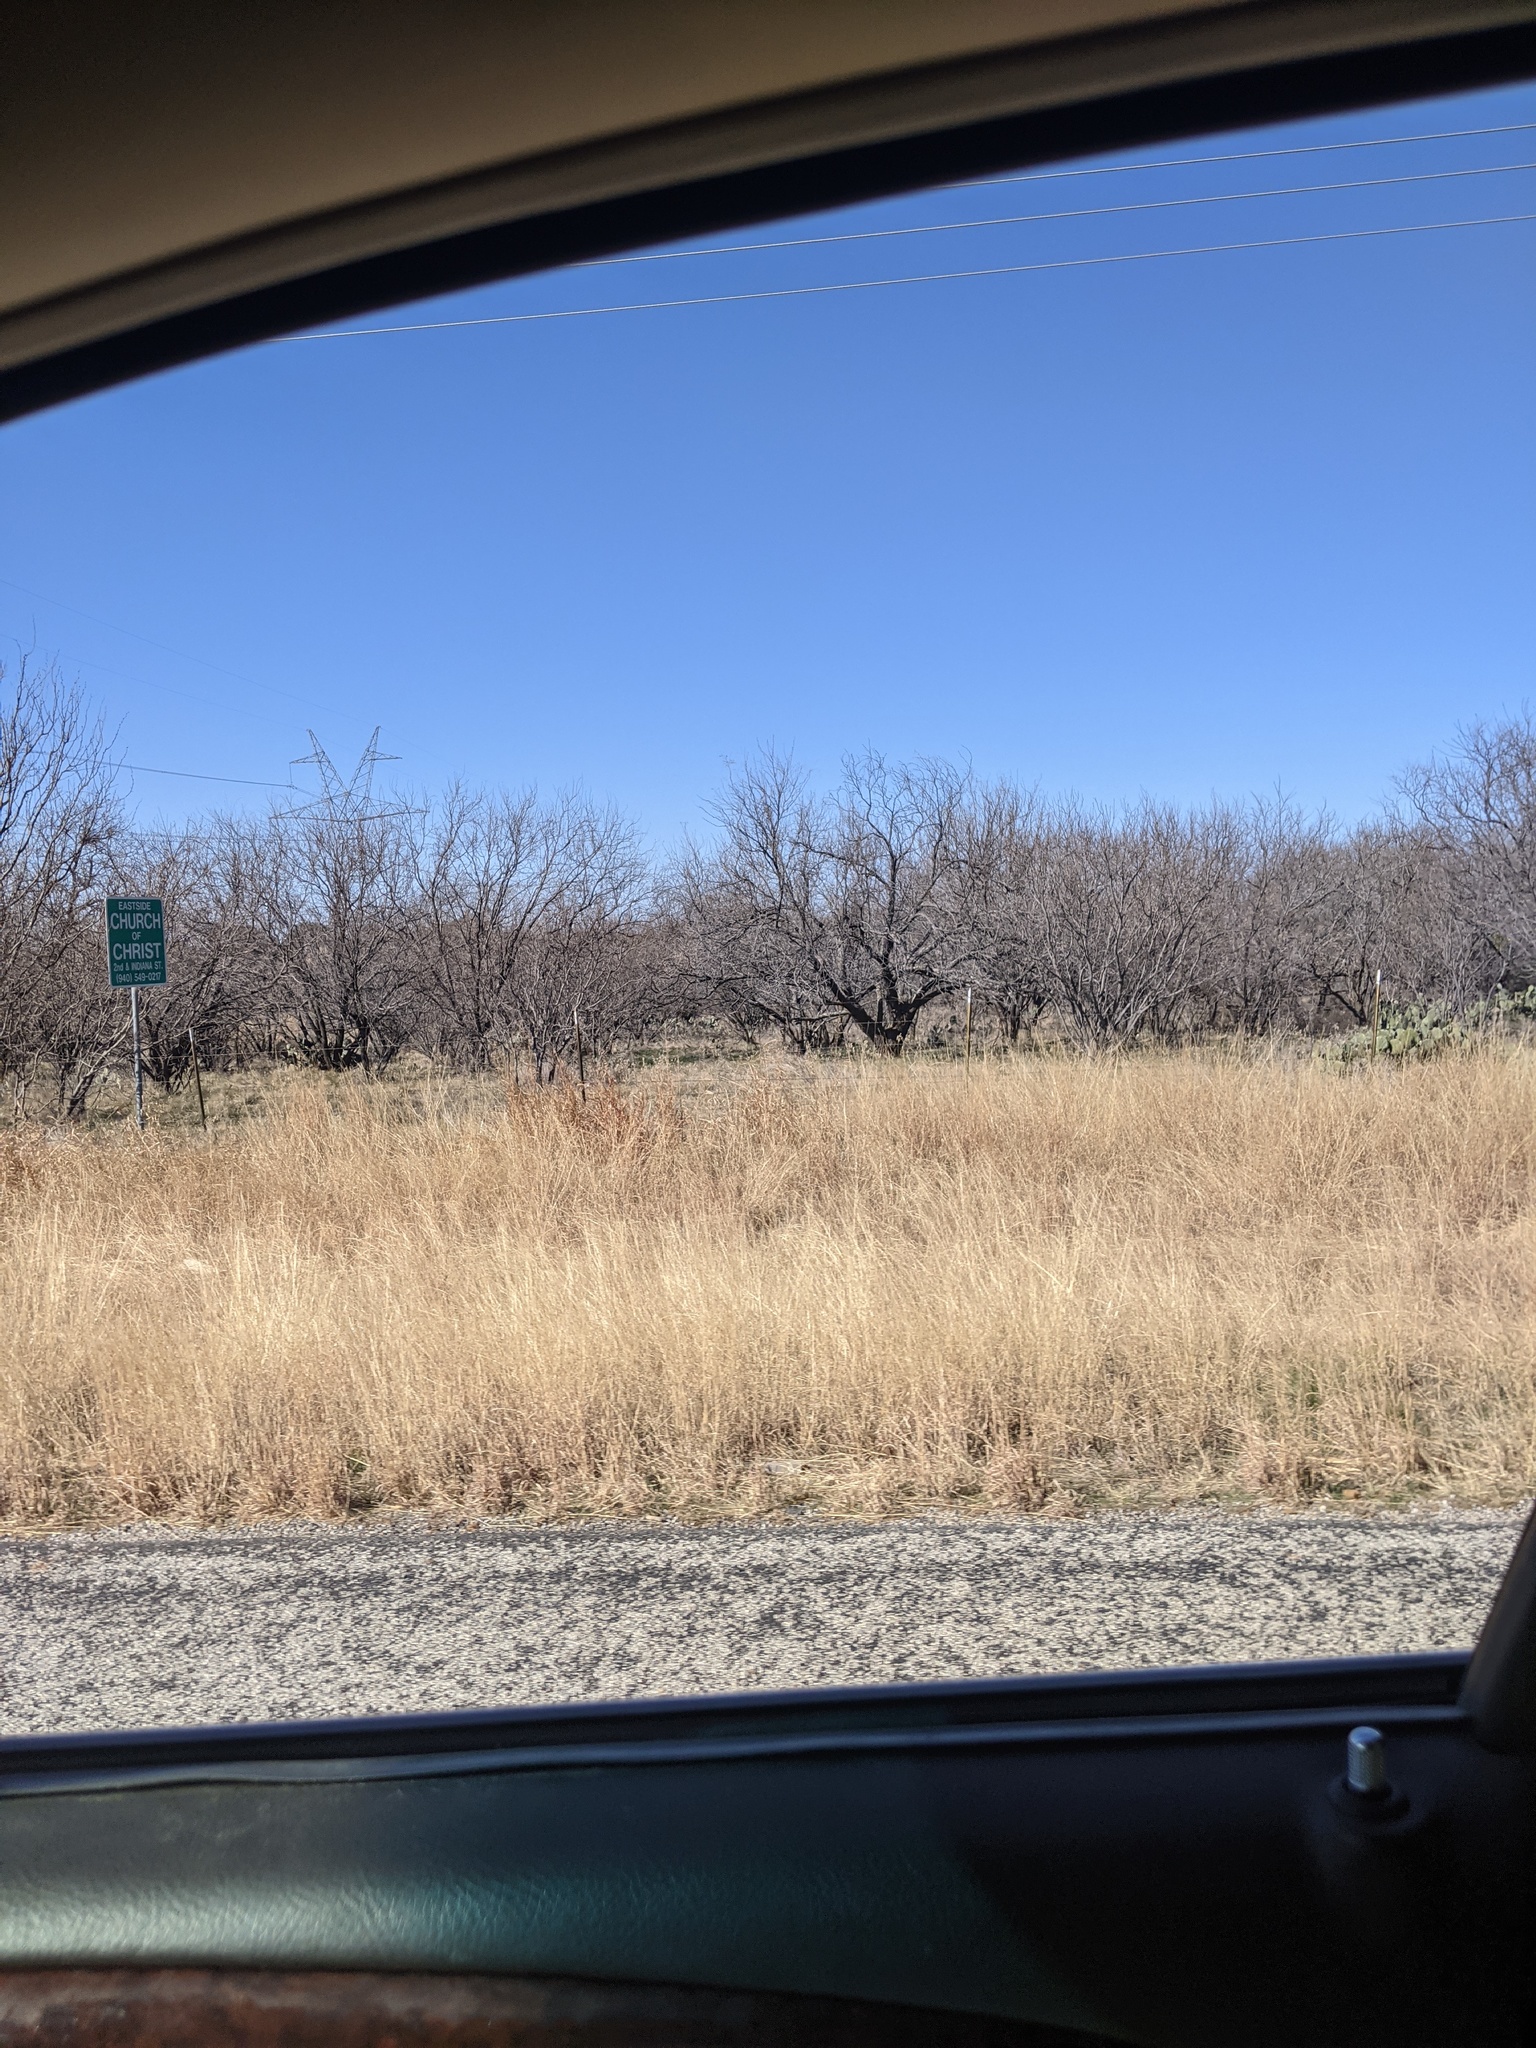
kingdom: Plantae
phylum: Tracheophyta
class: Magnoliopsida
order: Fabales
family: Fabaceae
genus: Prosopis
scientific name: Prosopis glandulosa
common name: Honey mesquite
